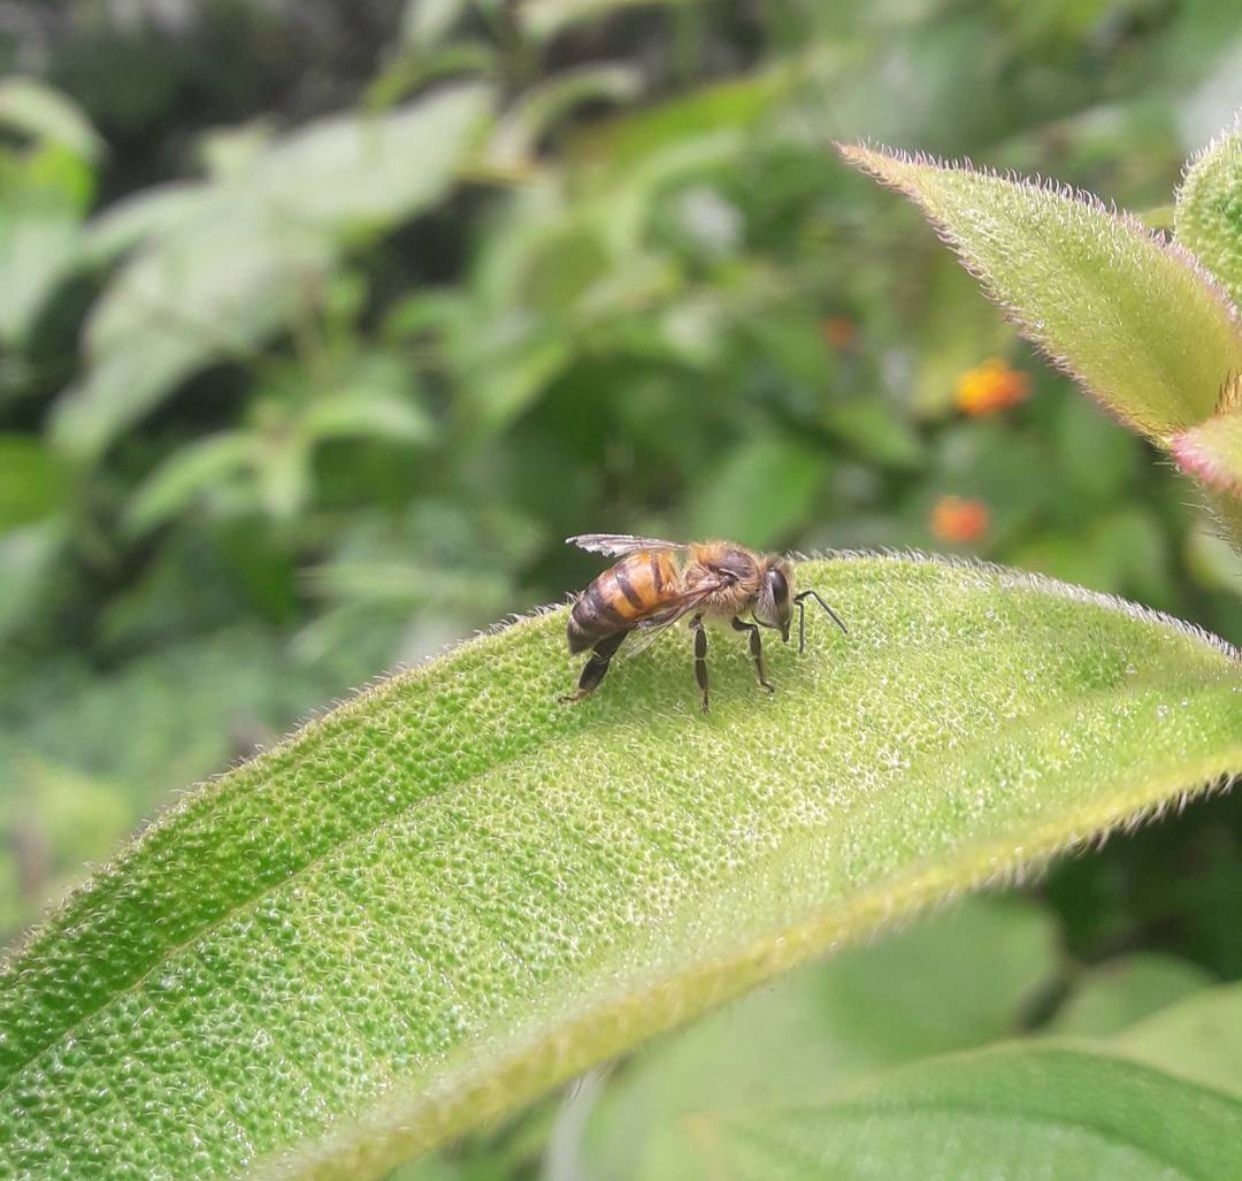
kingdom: Animalia
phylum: Arthropoda
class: Insecta
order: Hymenoptera
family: Apidae
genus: Apis
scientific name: Apis mellifera
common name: Honey bee
